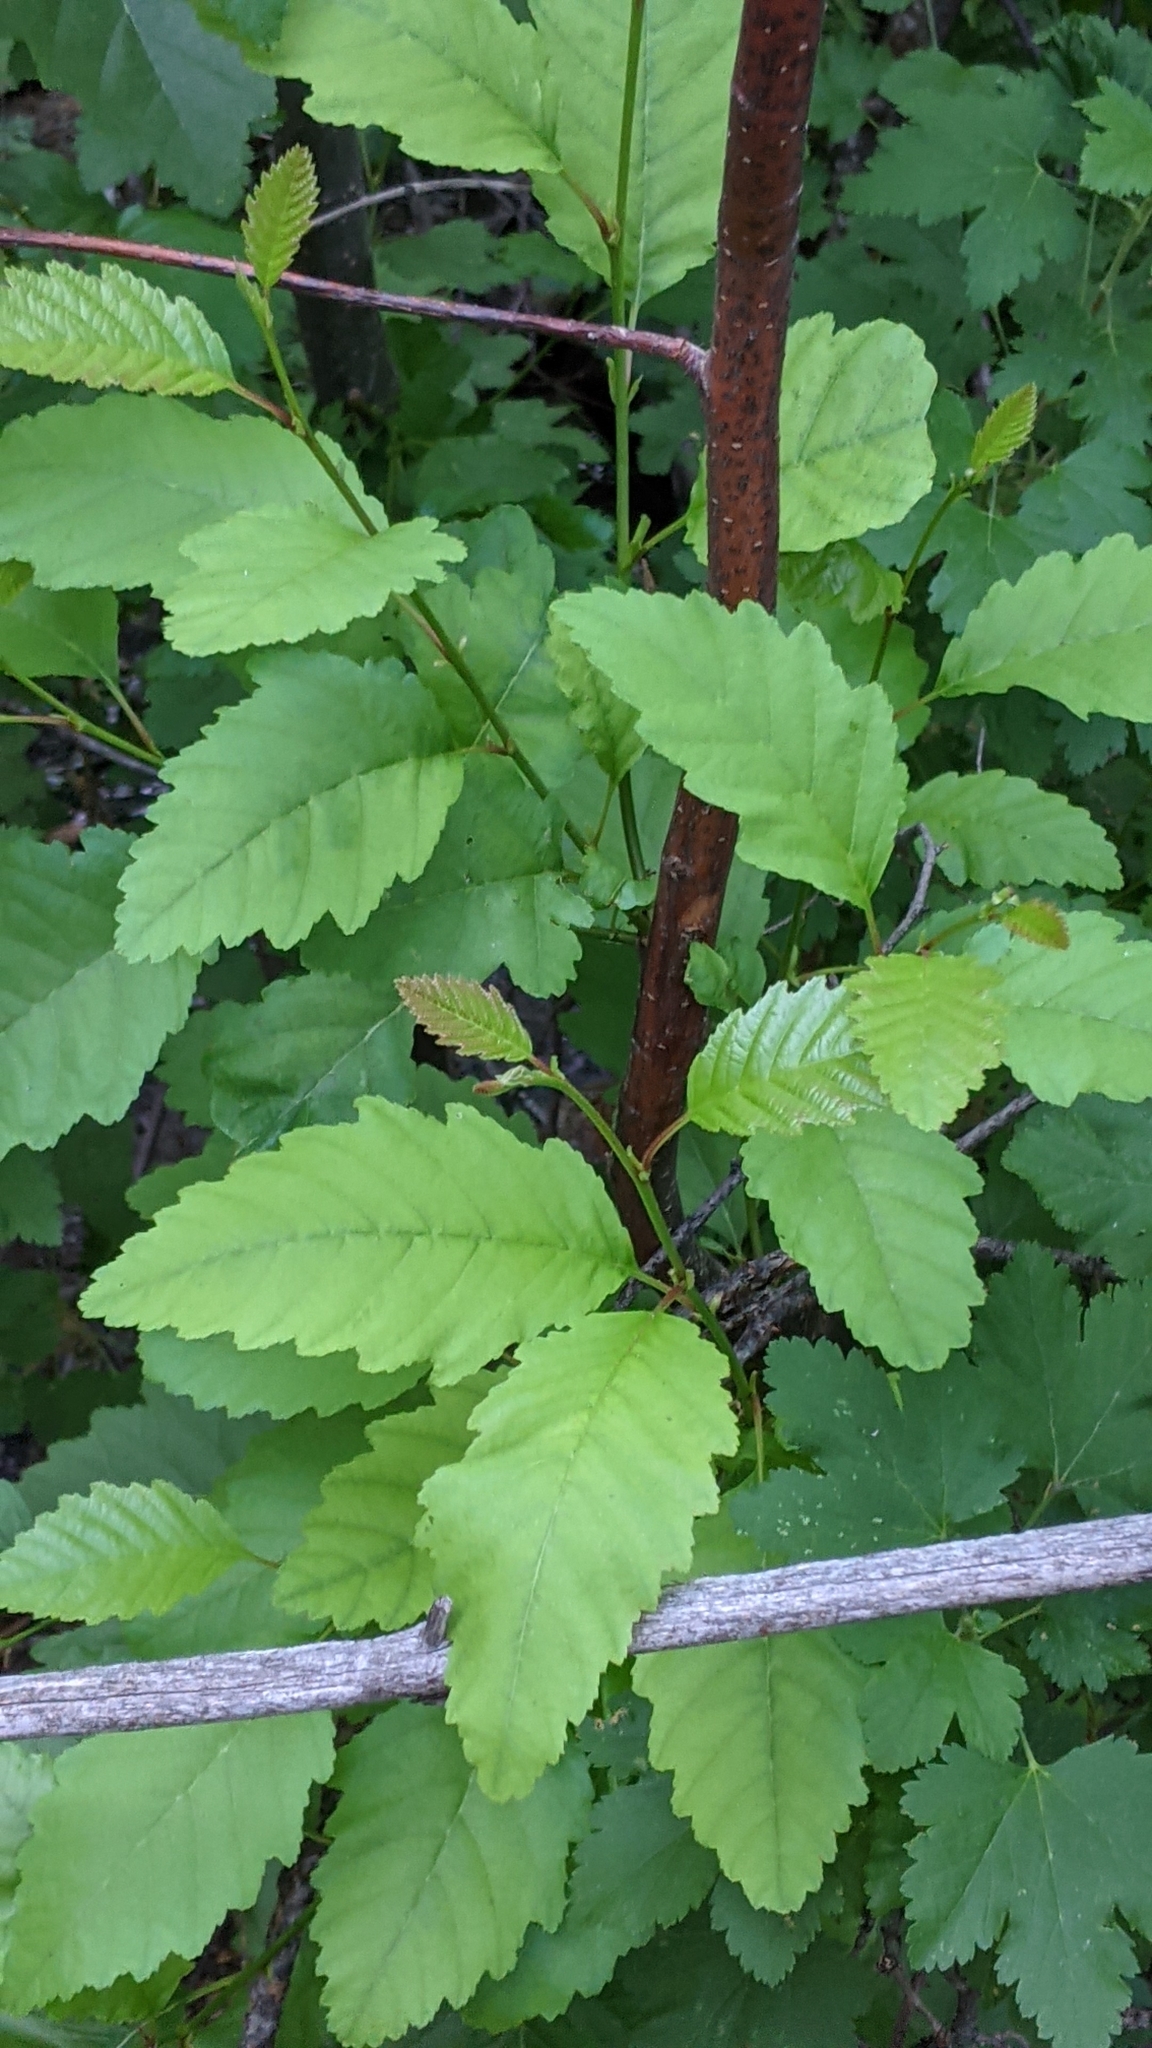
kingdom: Plantae
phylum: Tracheophyta
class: Magnoliopsida
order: Fagales
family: Betulaceae
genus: Alnus
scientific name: Alnus rhombifolia
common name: California alder
